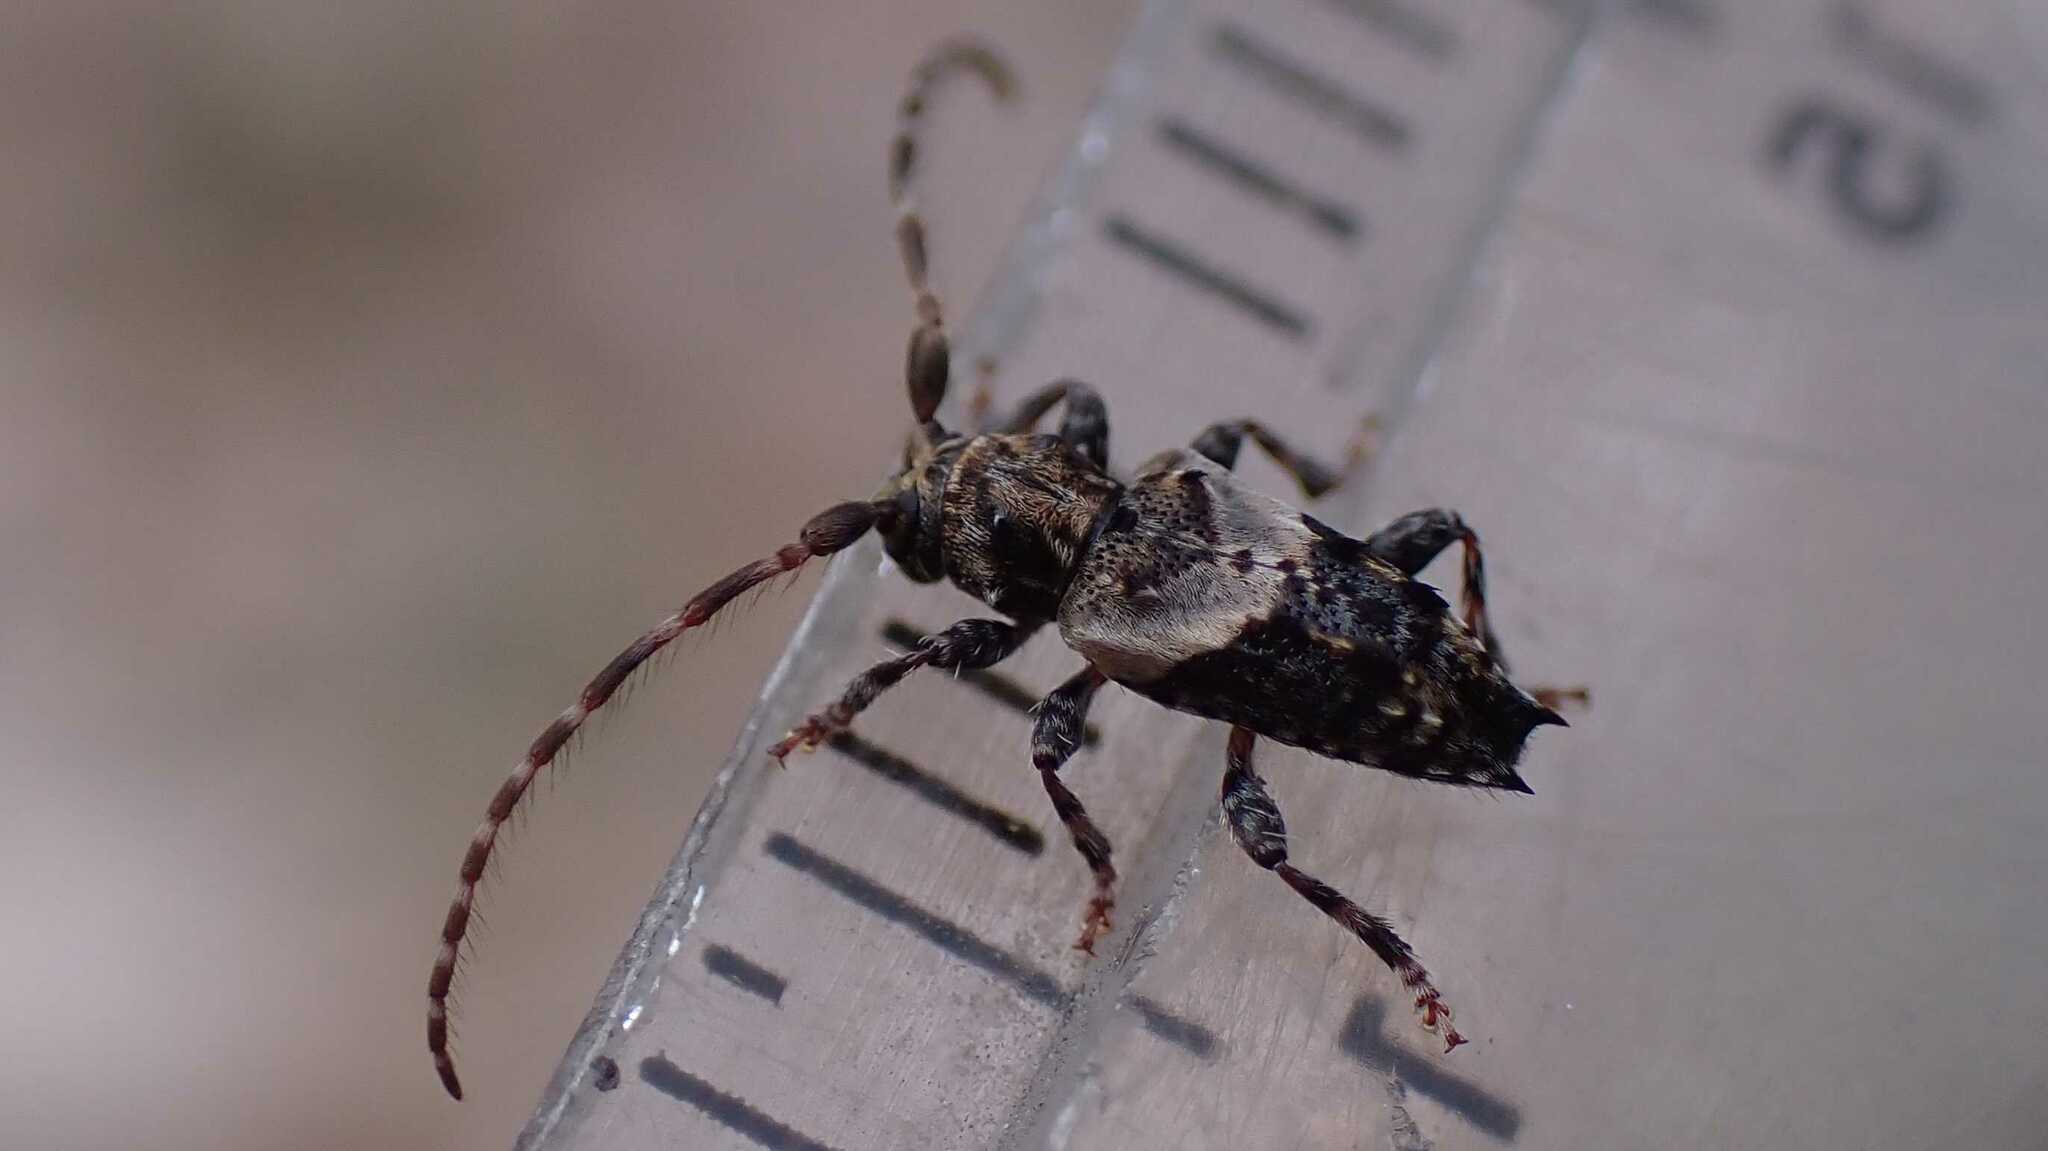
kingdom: Animalia
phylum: Arthropoda
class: Insecta
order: Coleoptera
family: Cerambycidae
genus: Pogonocherus
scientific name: Pogonocherus hispidus
